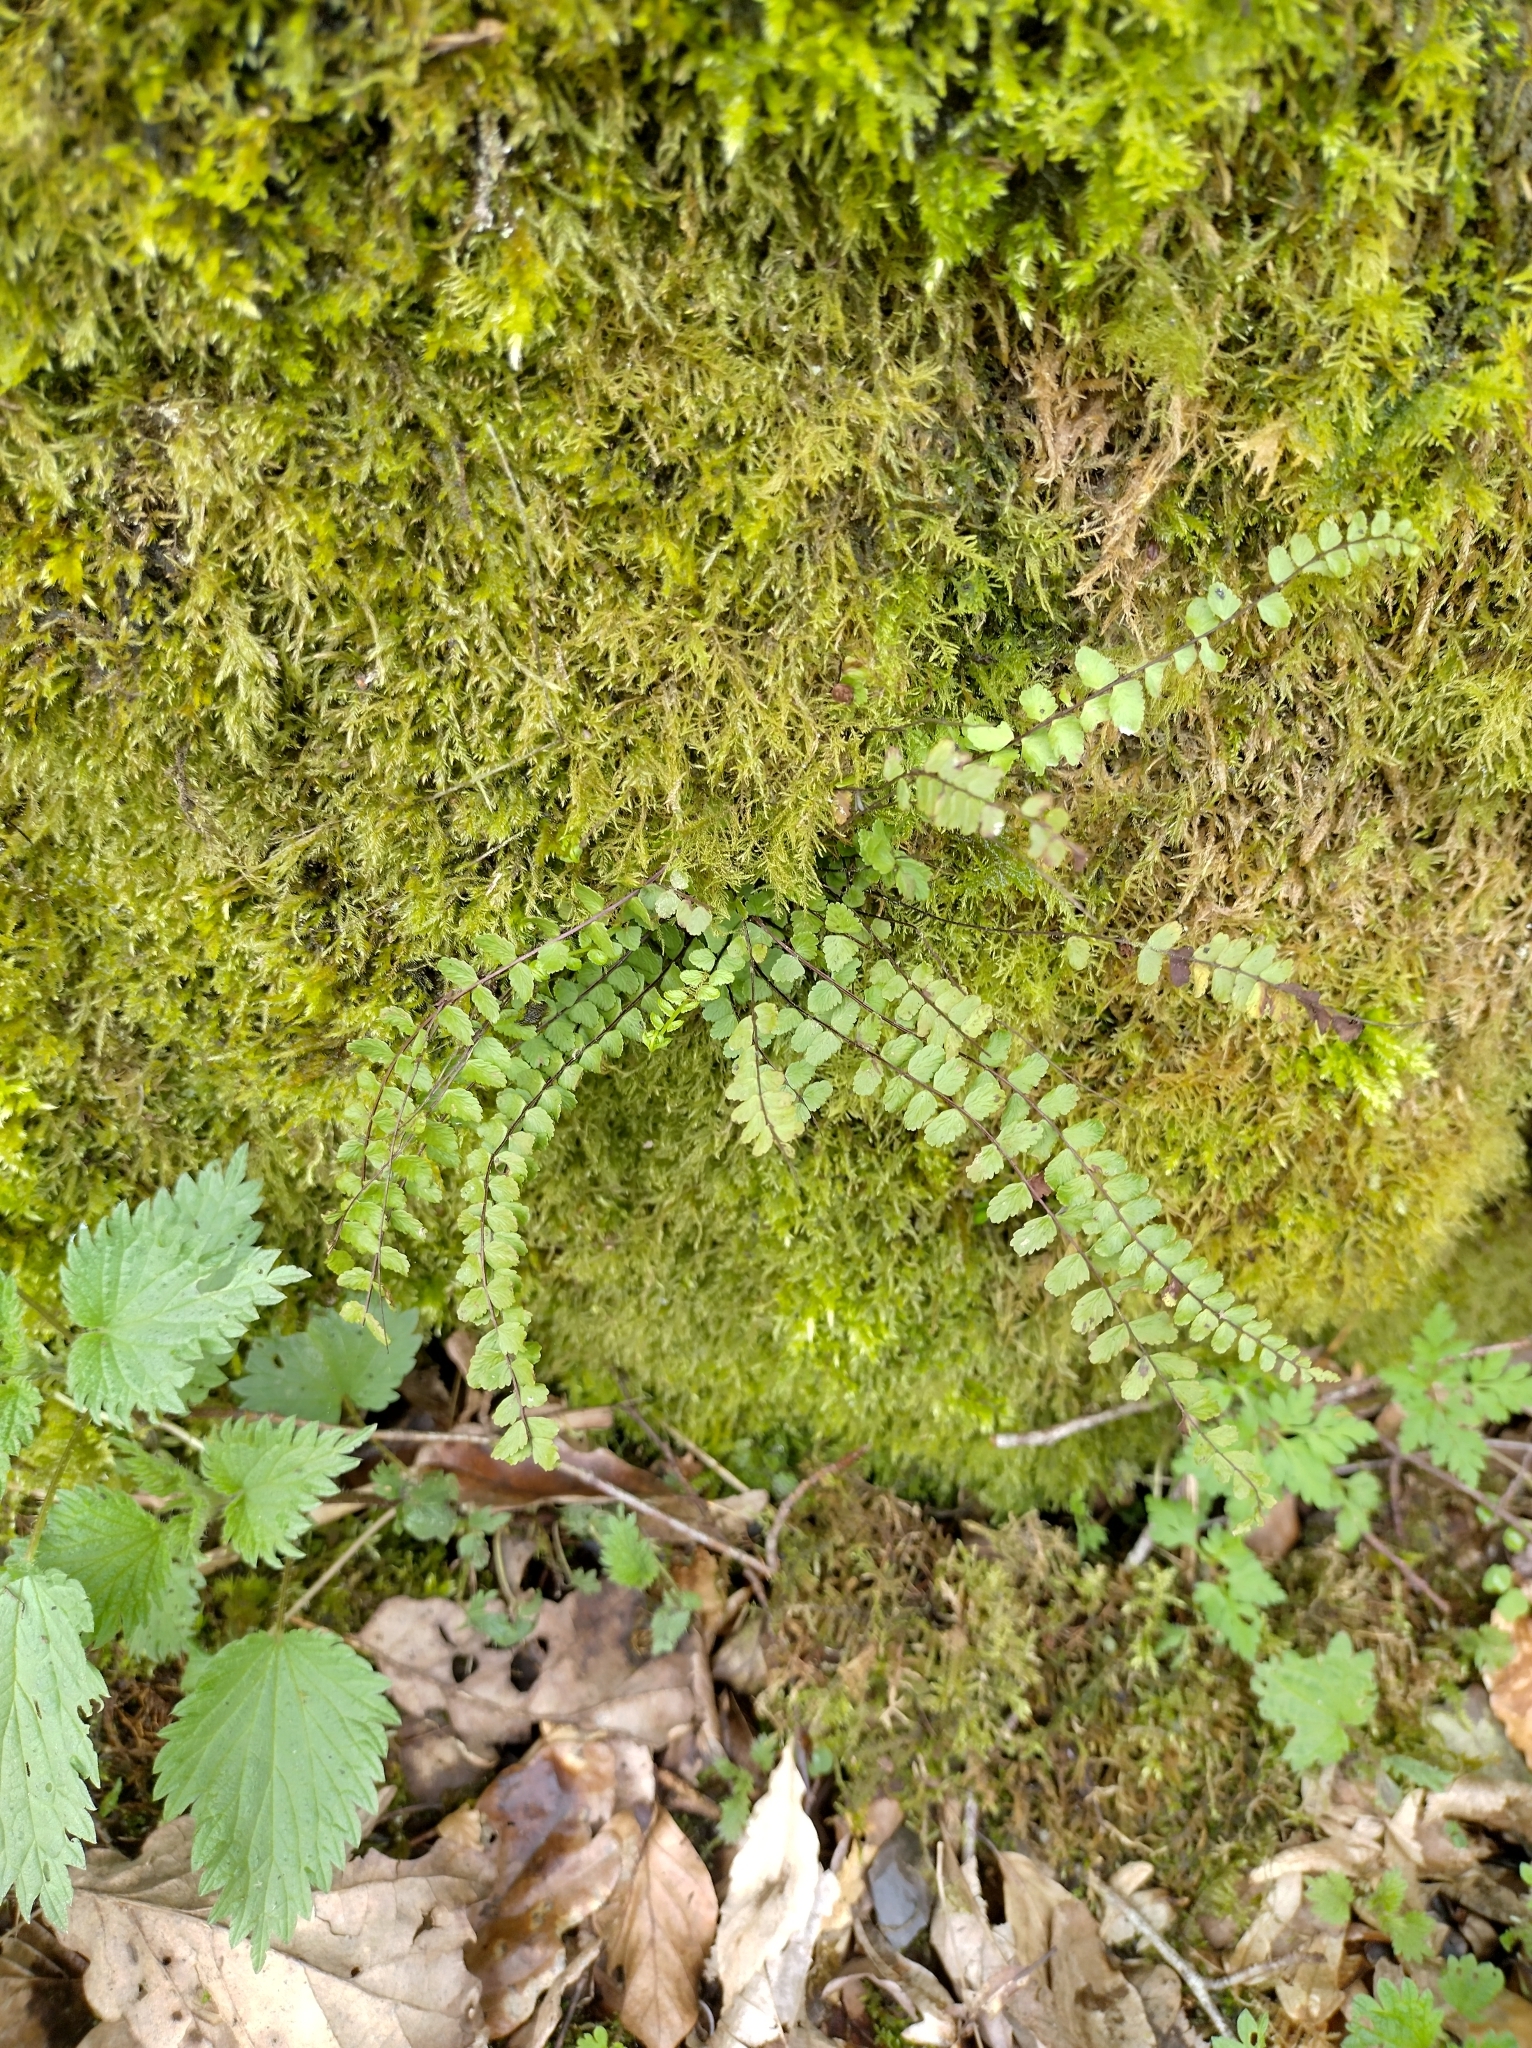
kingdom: Plantae
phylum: Tracheophyta
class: Polypodiopsida
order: Polypodiales
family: Aspleniaceae
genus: Asplenium
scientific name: Asplenium trichomanes
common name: Maidenhair spleenwort
